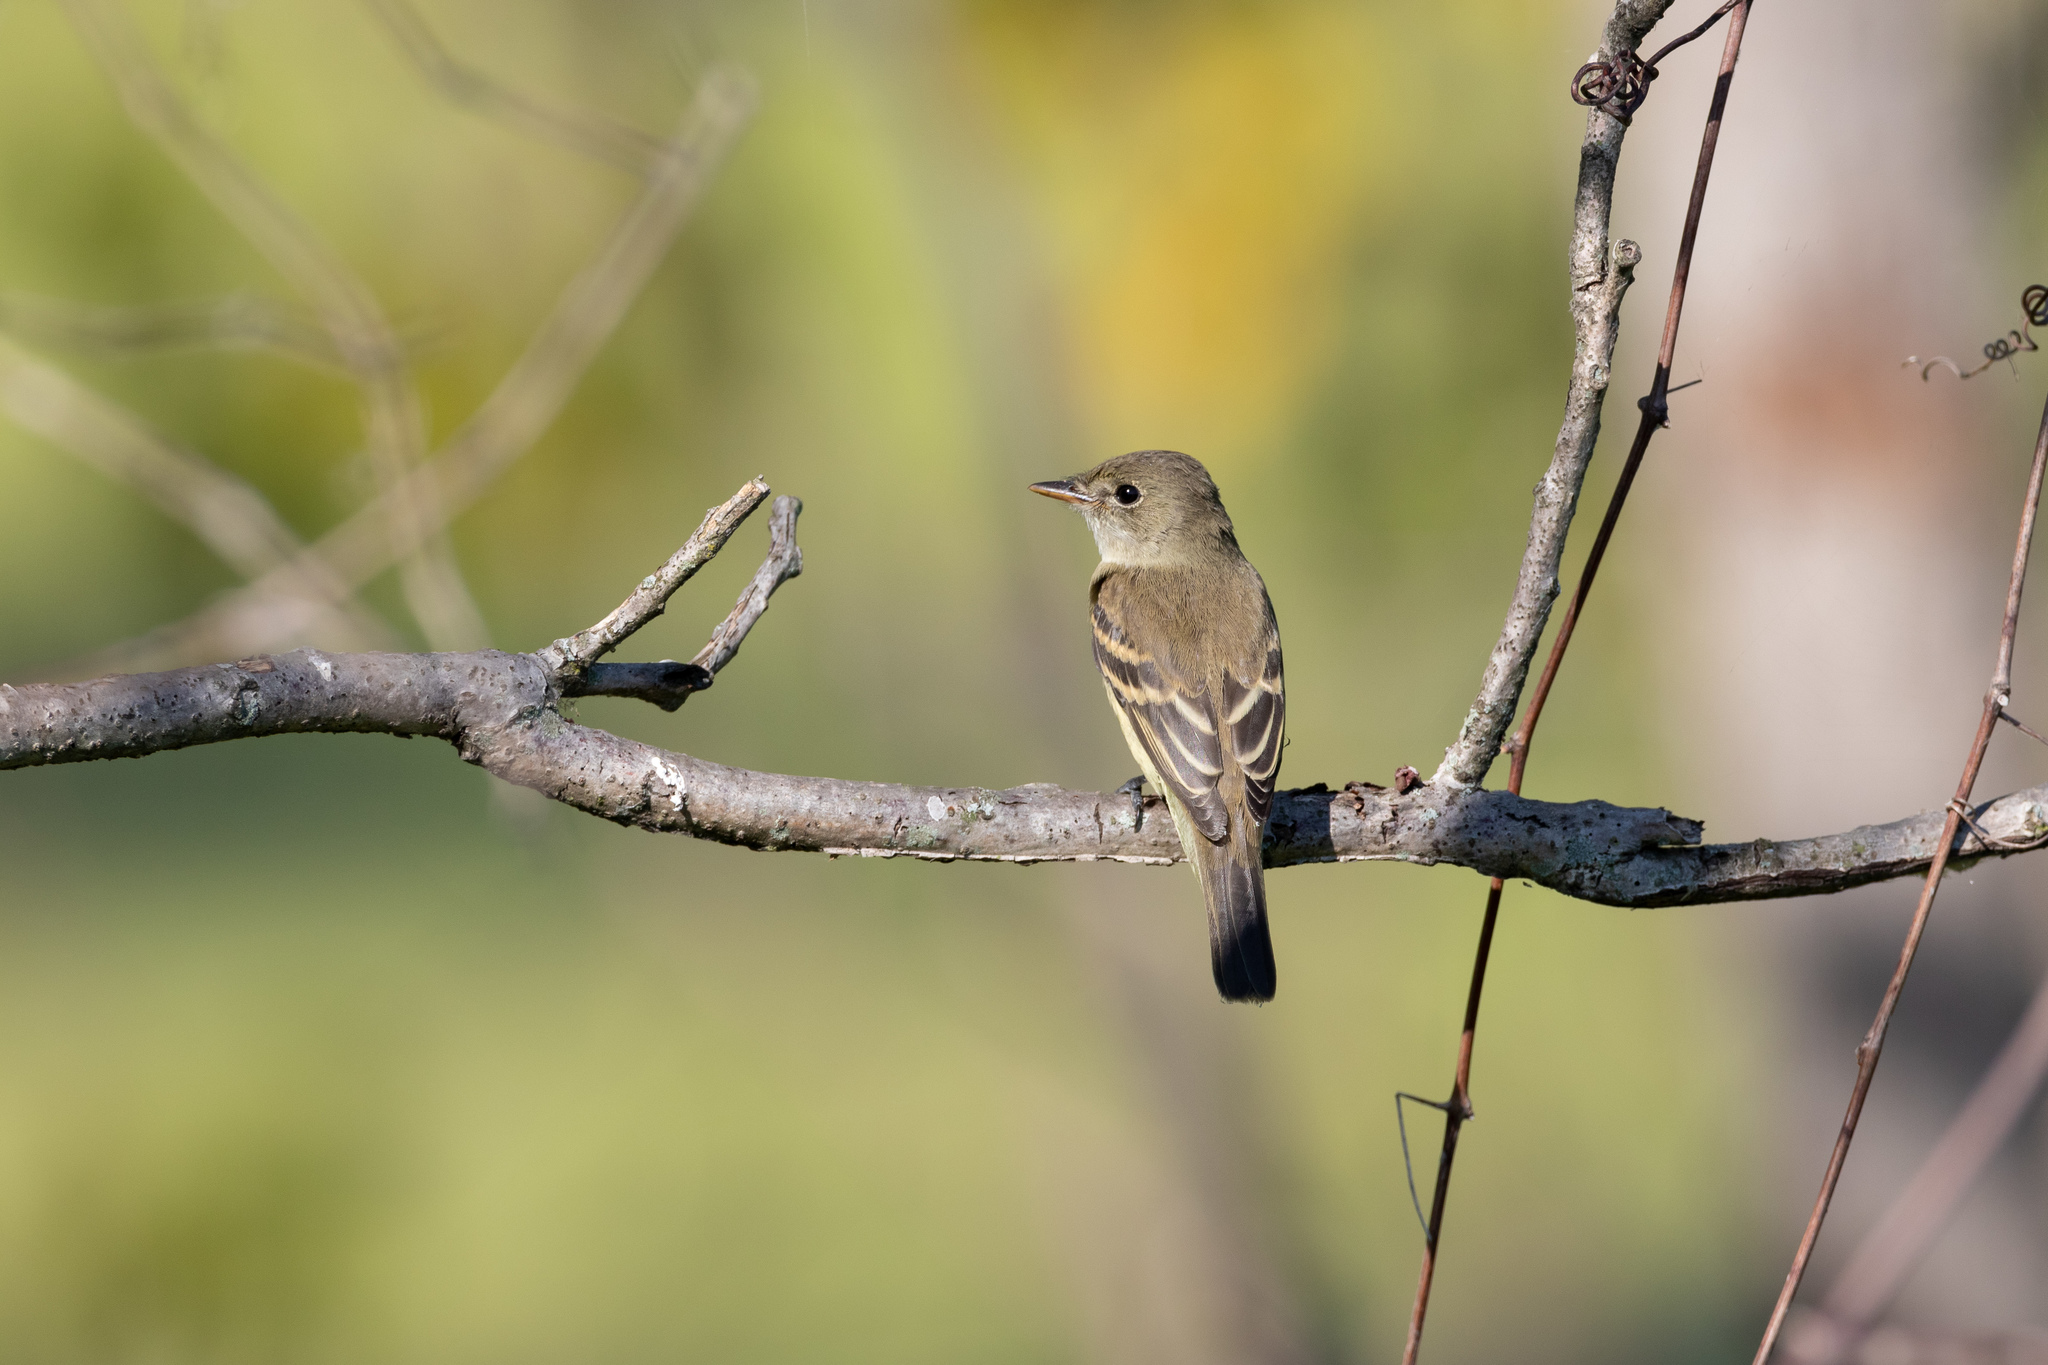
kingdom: Animalia
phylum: Chordata
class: Aves
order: Passeriformes
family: Tyrannidae
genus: Empidonax
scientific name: Empidonax
